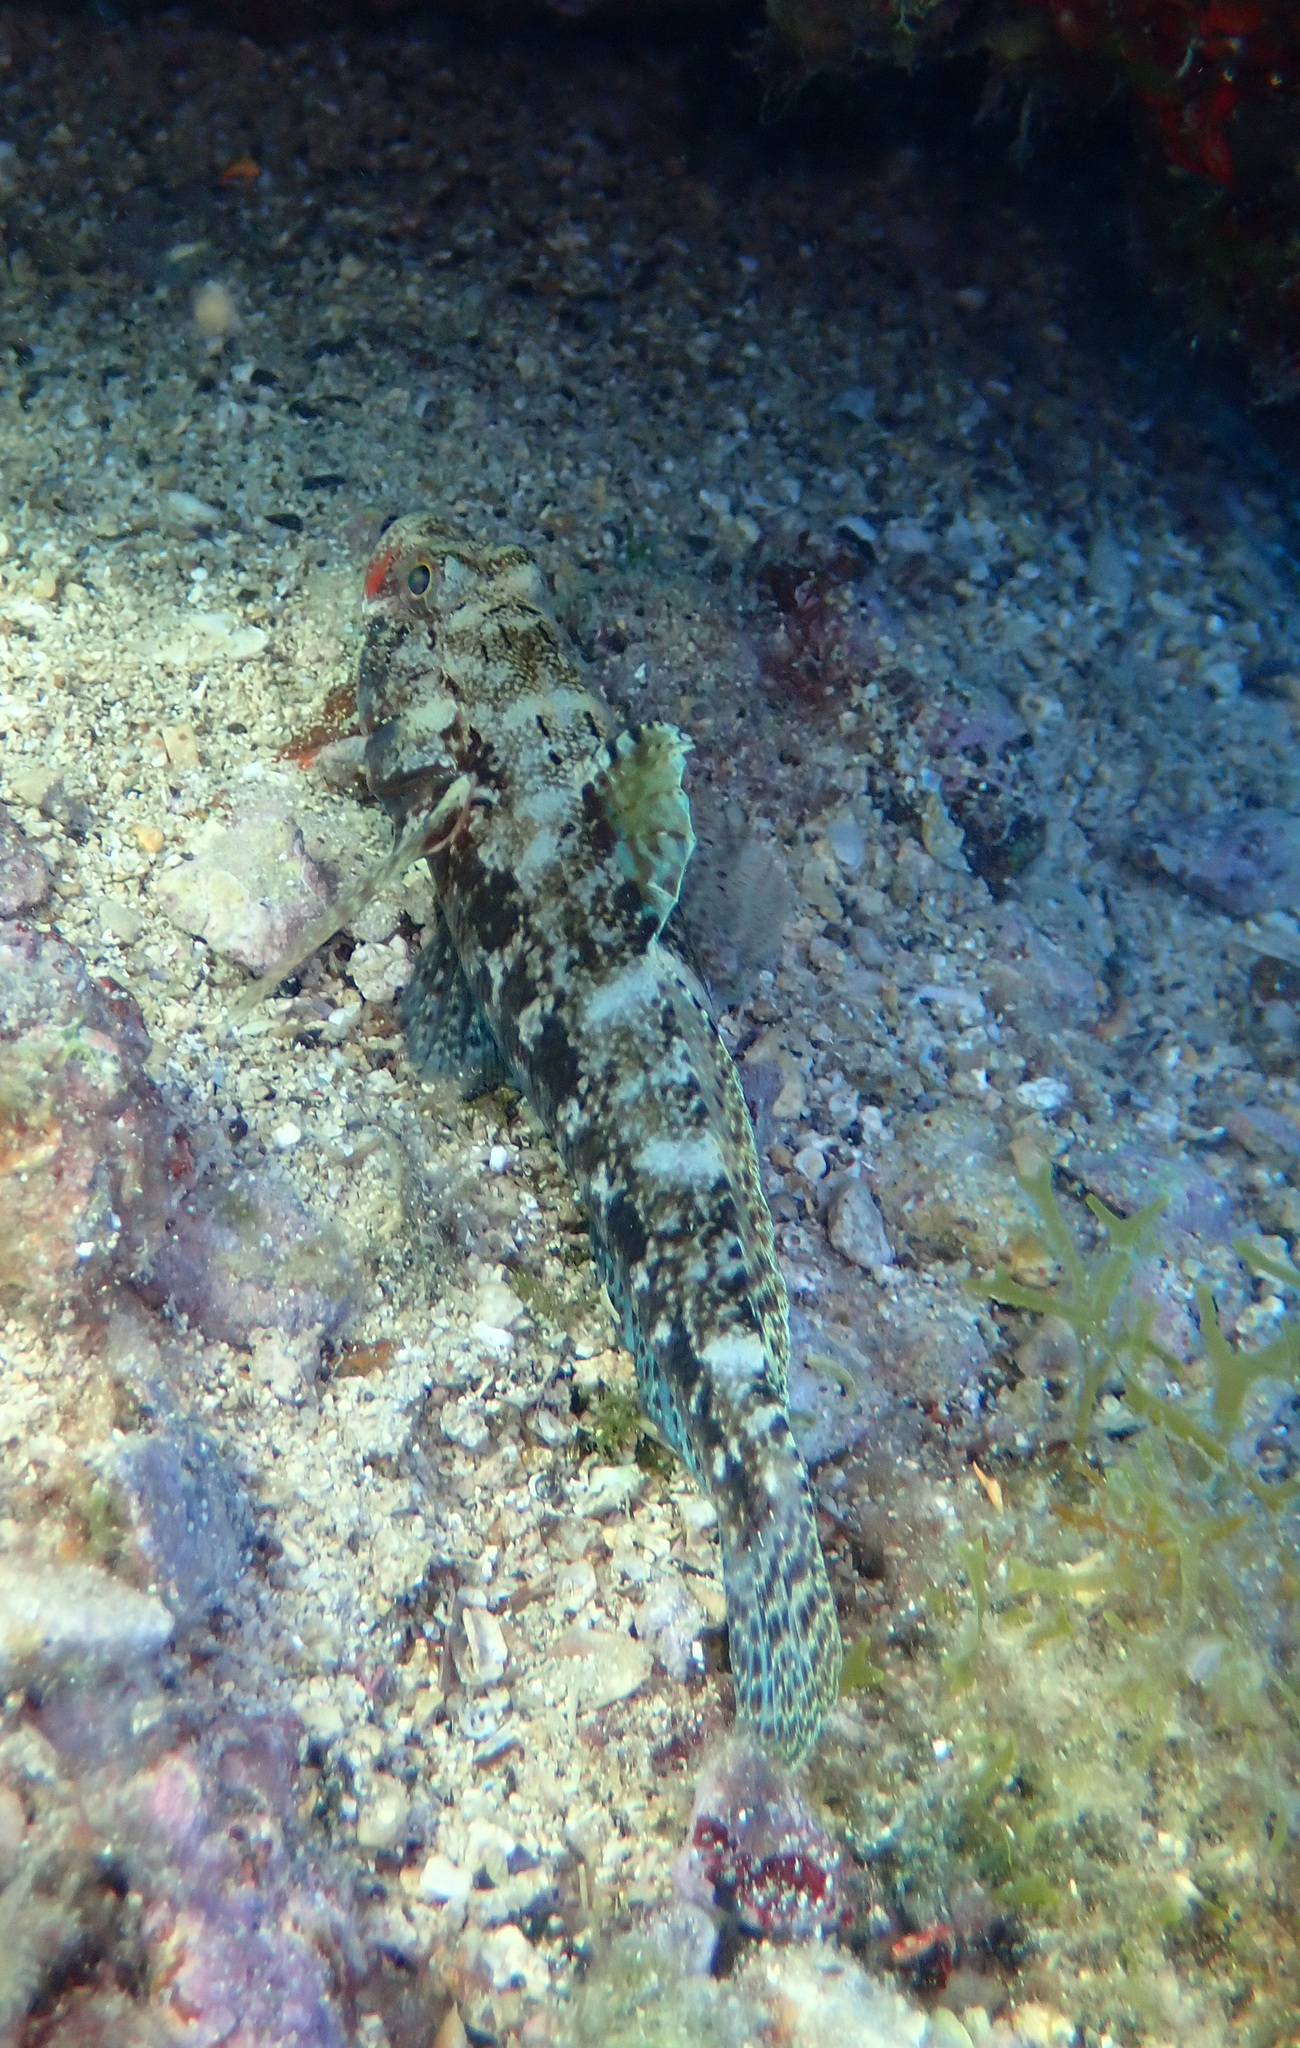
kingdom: Animalia
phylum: Chordata
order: Perciformes
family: Gobiidae
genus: Gobius
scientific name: Gobius cruentatus
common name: Red-mouthed goby
